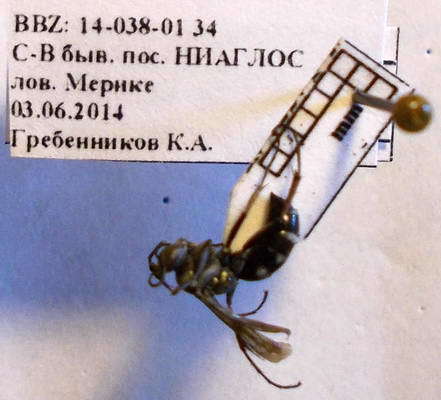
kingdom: Animalia
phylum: Arthropoda
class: Insecta
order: Hymenoptera
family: Pompilidae
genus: Aporinellus
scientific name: Aporinellus sexmaculatus
